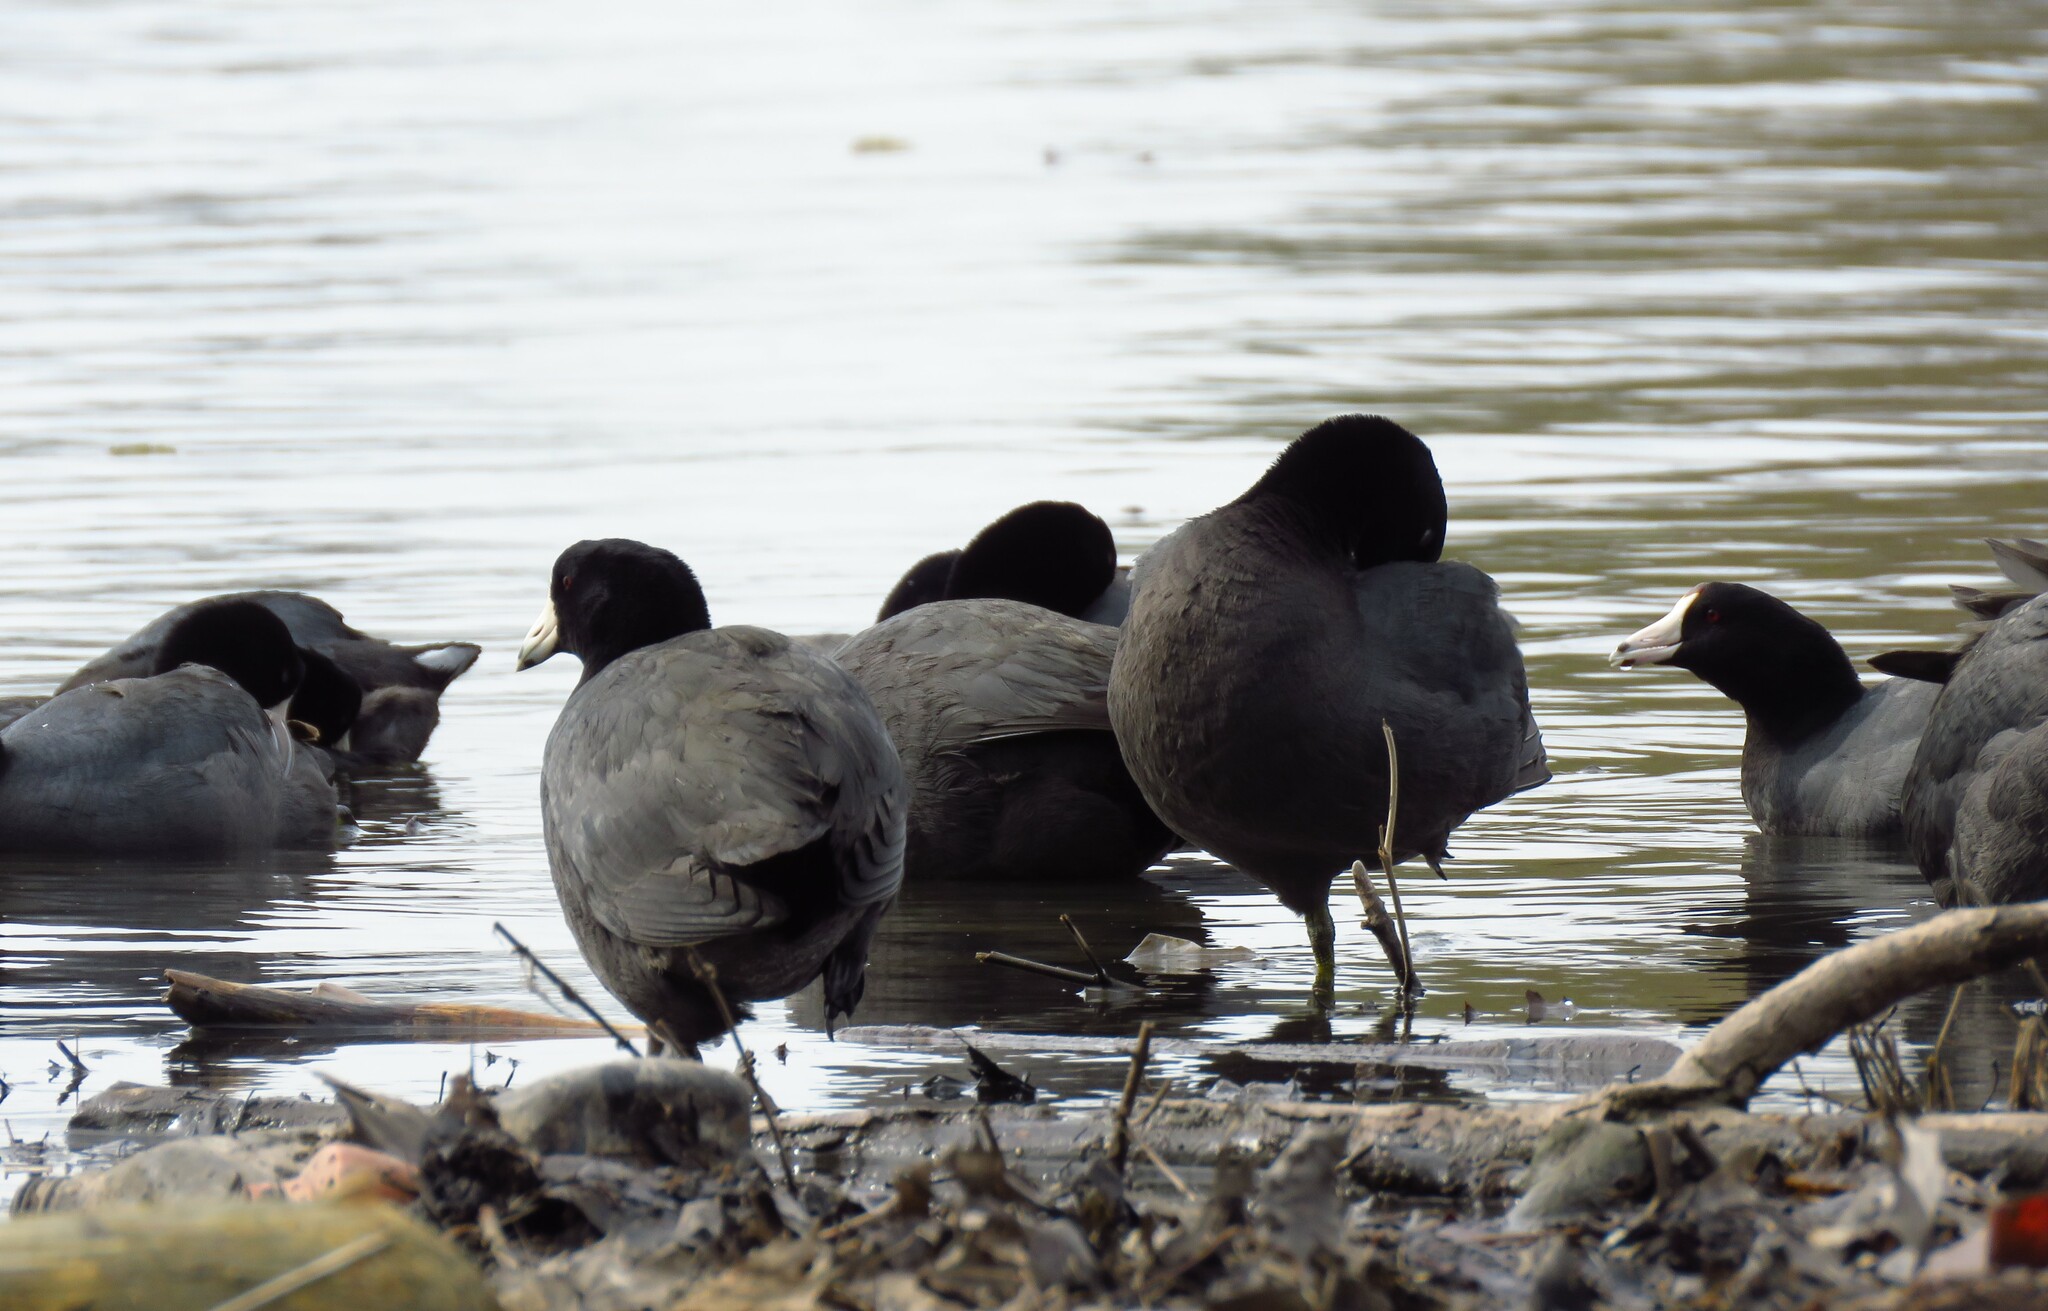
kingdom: Animalia
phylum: Chordata
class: Aves
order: Gruiformes
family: Rallidae
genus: Fulica
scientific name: Fulica americana
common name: American coot
